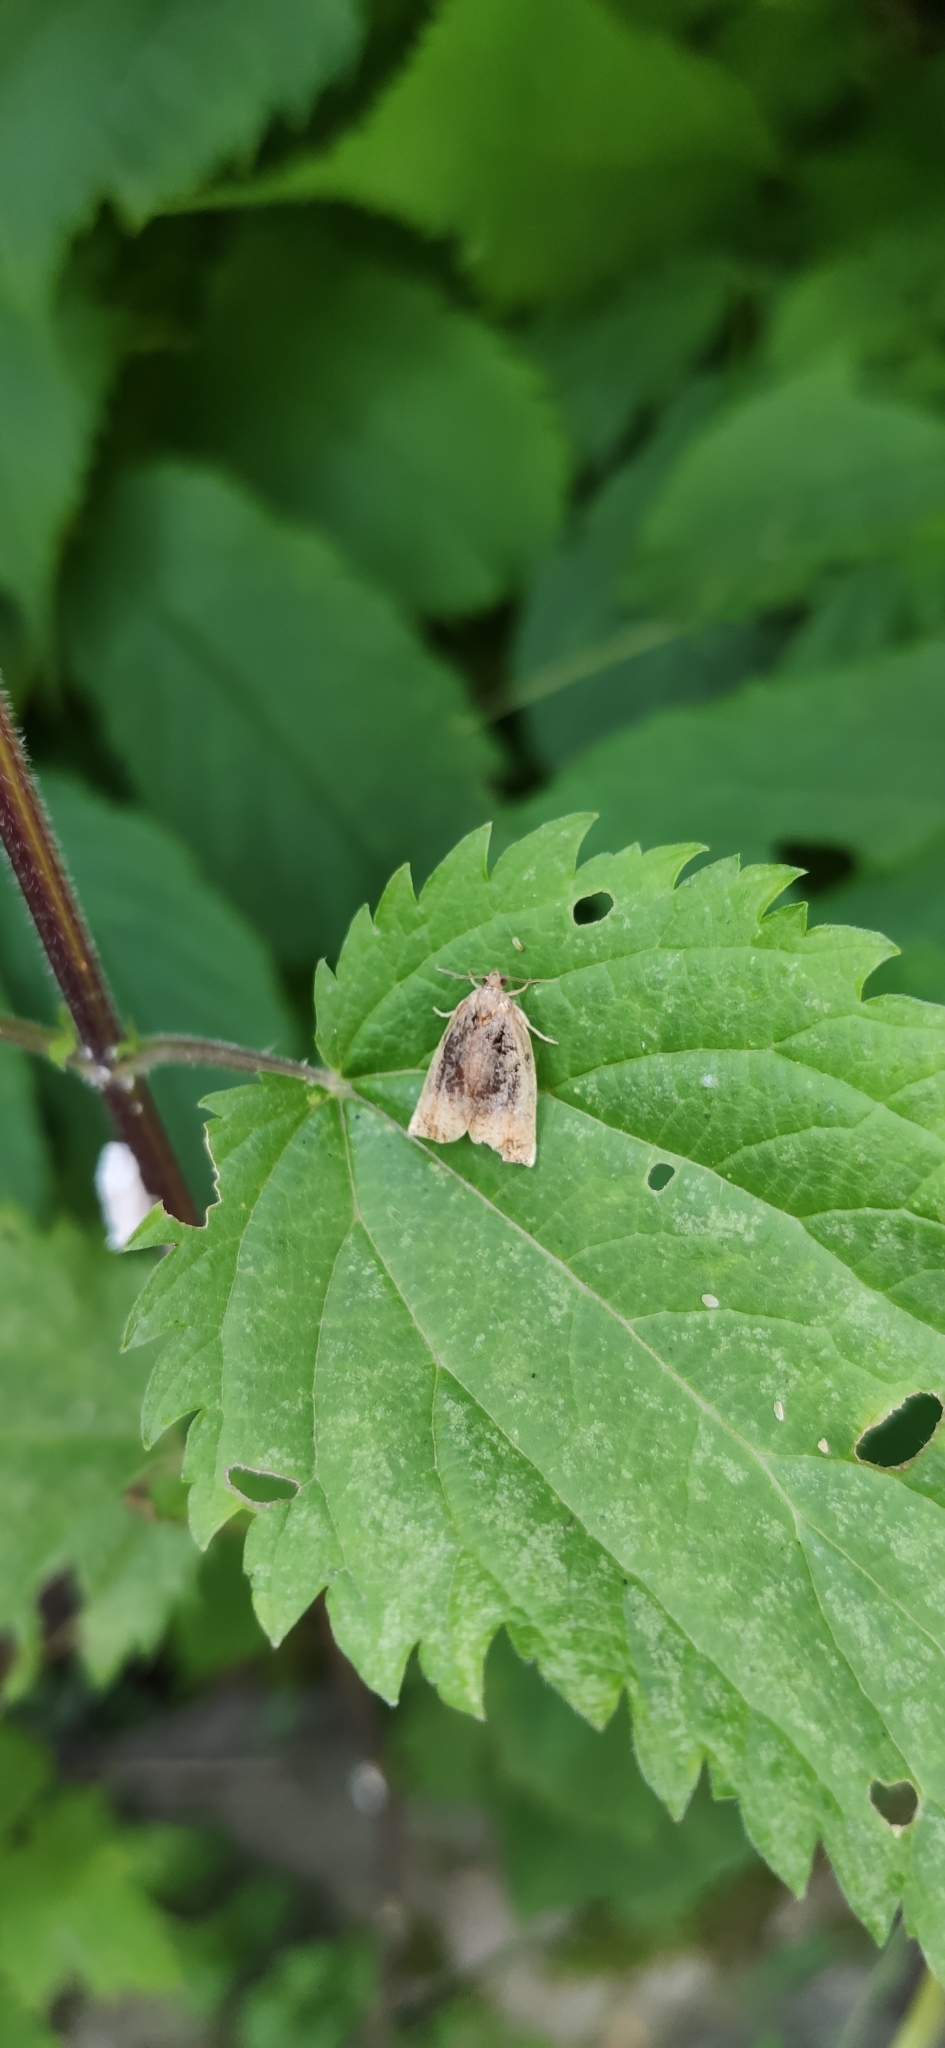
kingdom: Animalia
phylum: Arthropoda
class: Insecta
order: Lepidoptera
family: Tortricidae
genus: Archips
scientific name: Archips podana
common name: Large fruit-tree tortrix
